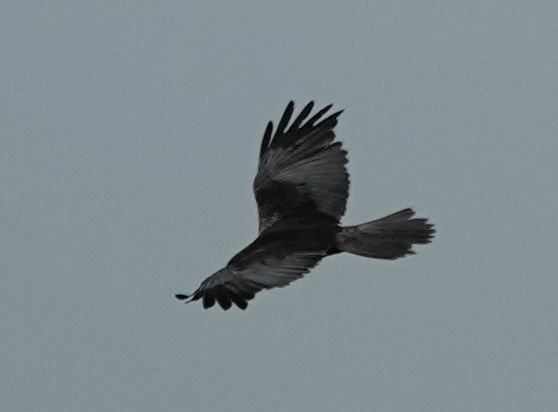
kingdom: Animalia
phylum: Chordata
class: Aves
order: Accipitriformes
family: Accipitridae
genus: Circus
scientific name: Circus aeruginosus
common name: Western marsh harrier
